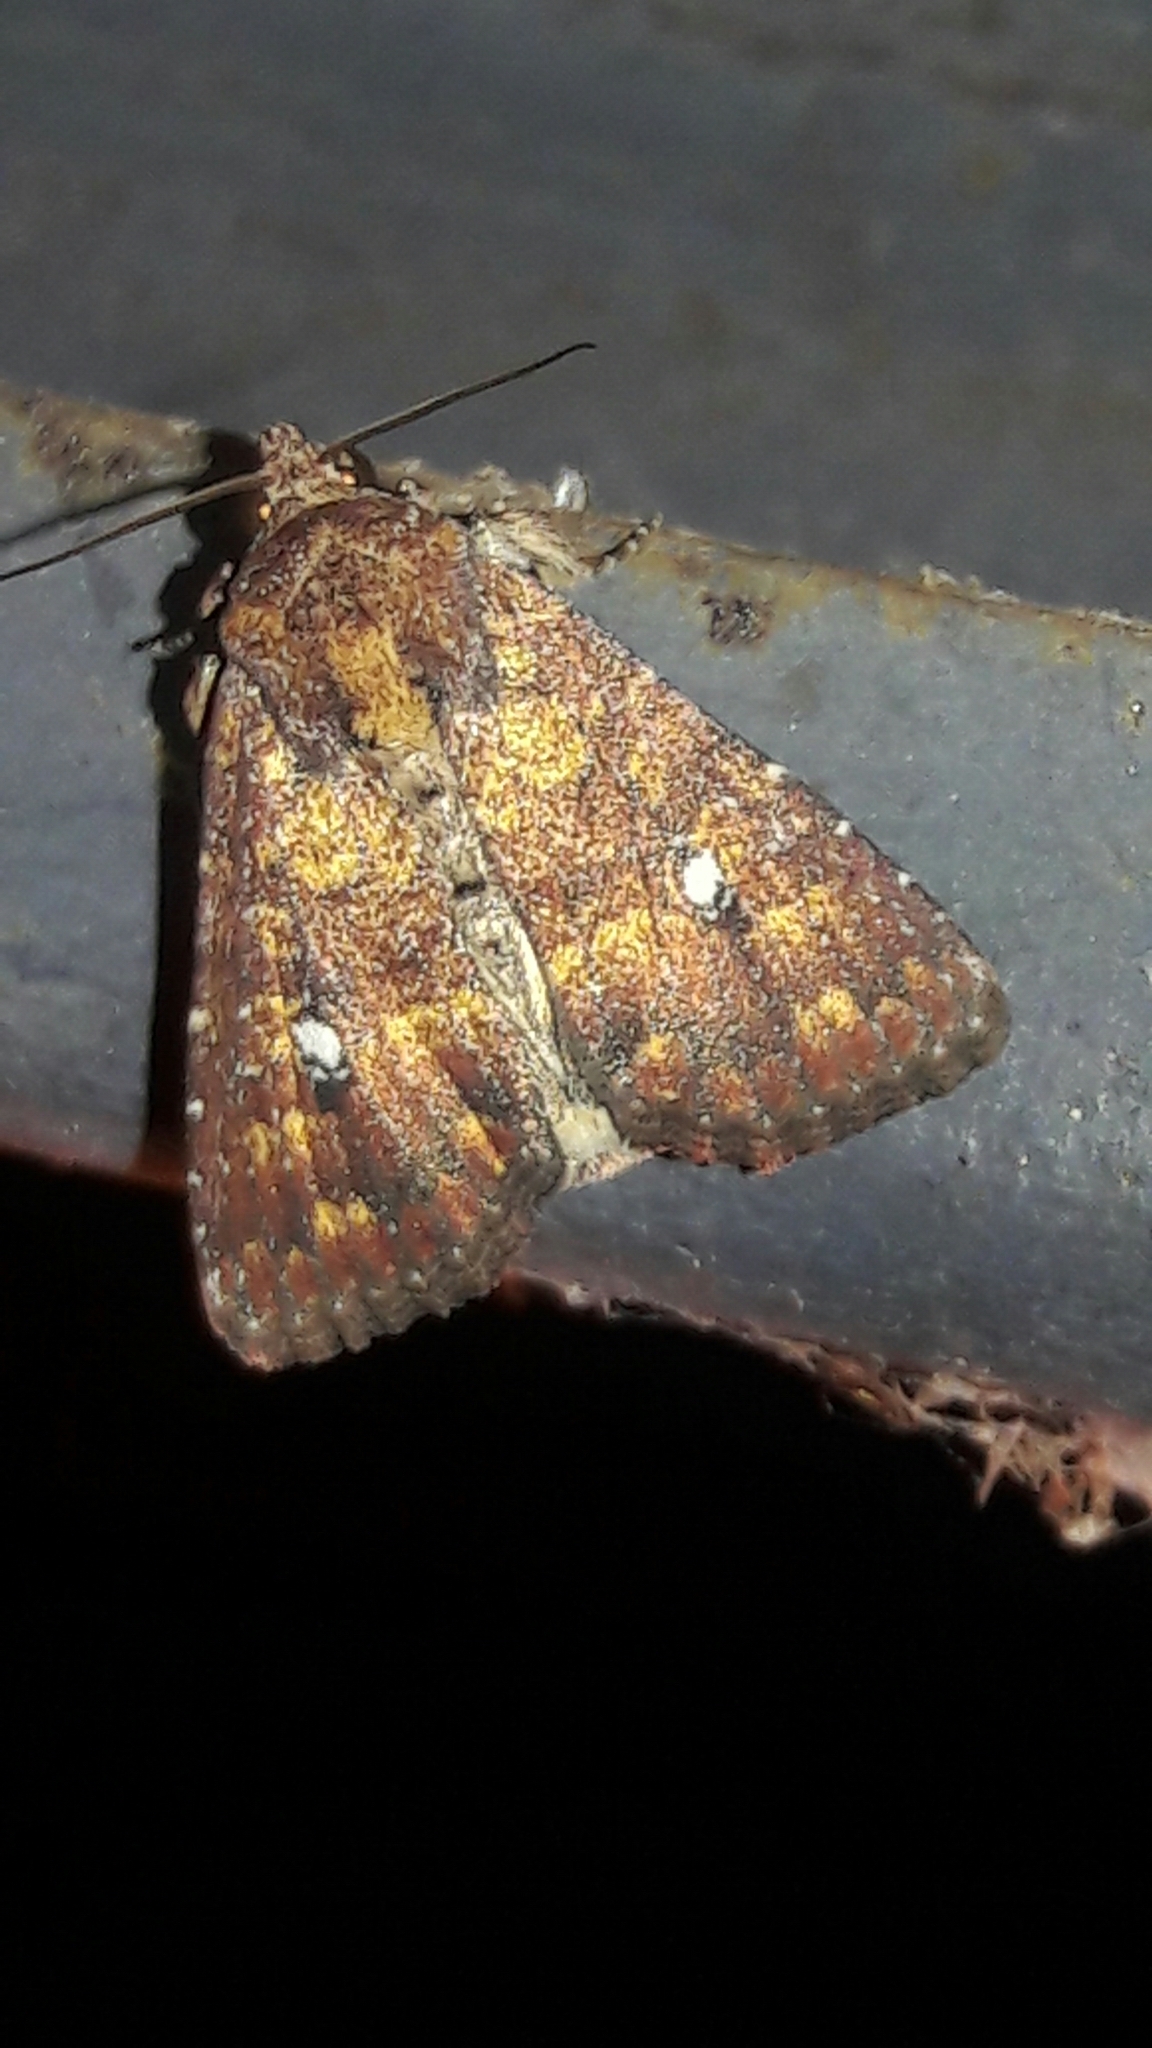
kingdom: Animalia
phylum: Arthropoda
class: Insecta
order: Lepidoptera
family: Noctuidae
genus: Condica
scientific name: Condica mobilis
